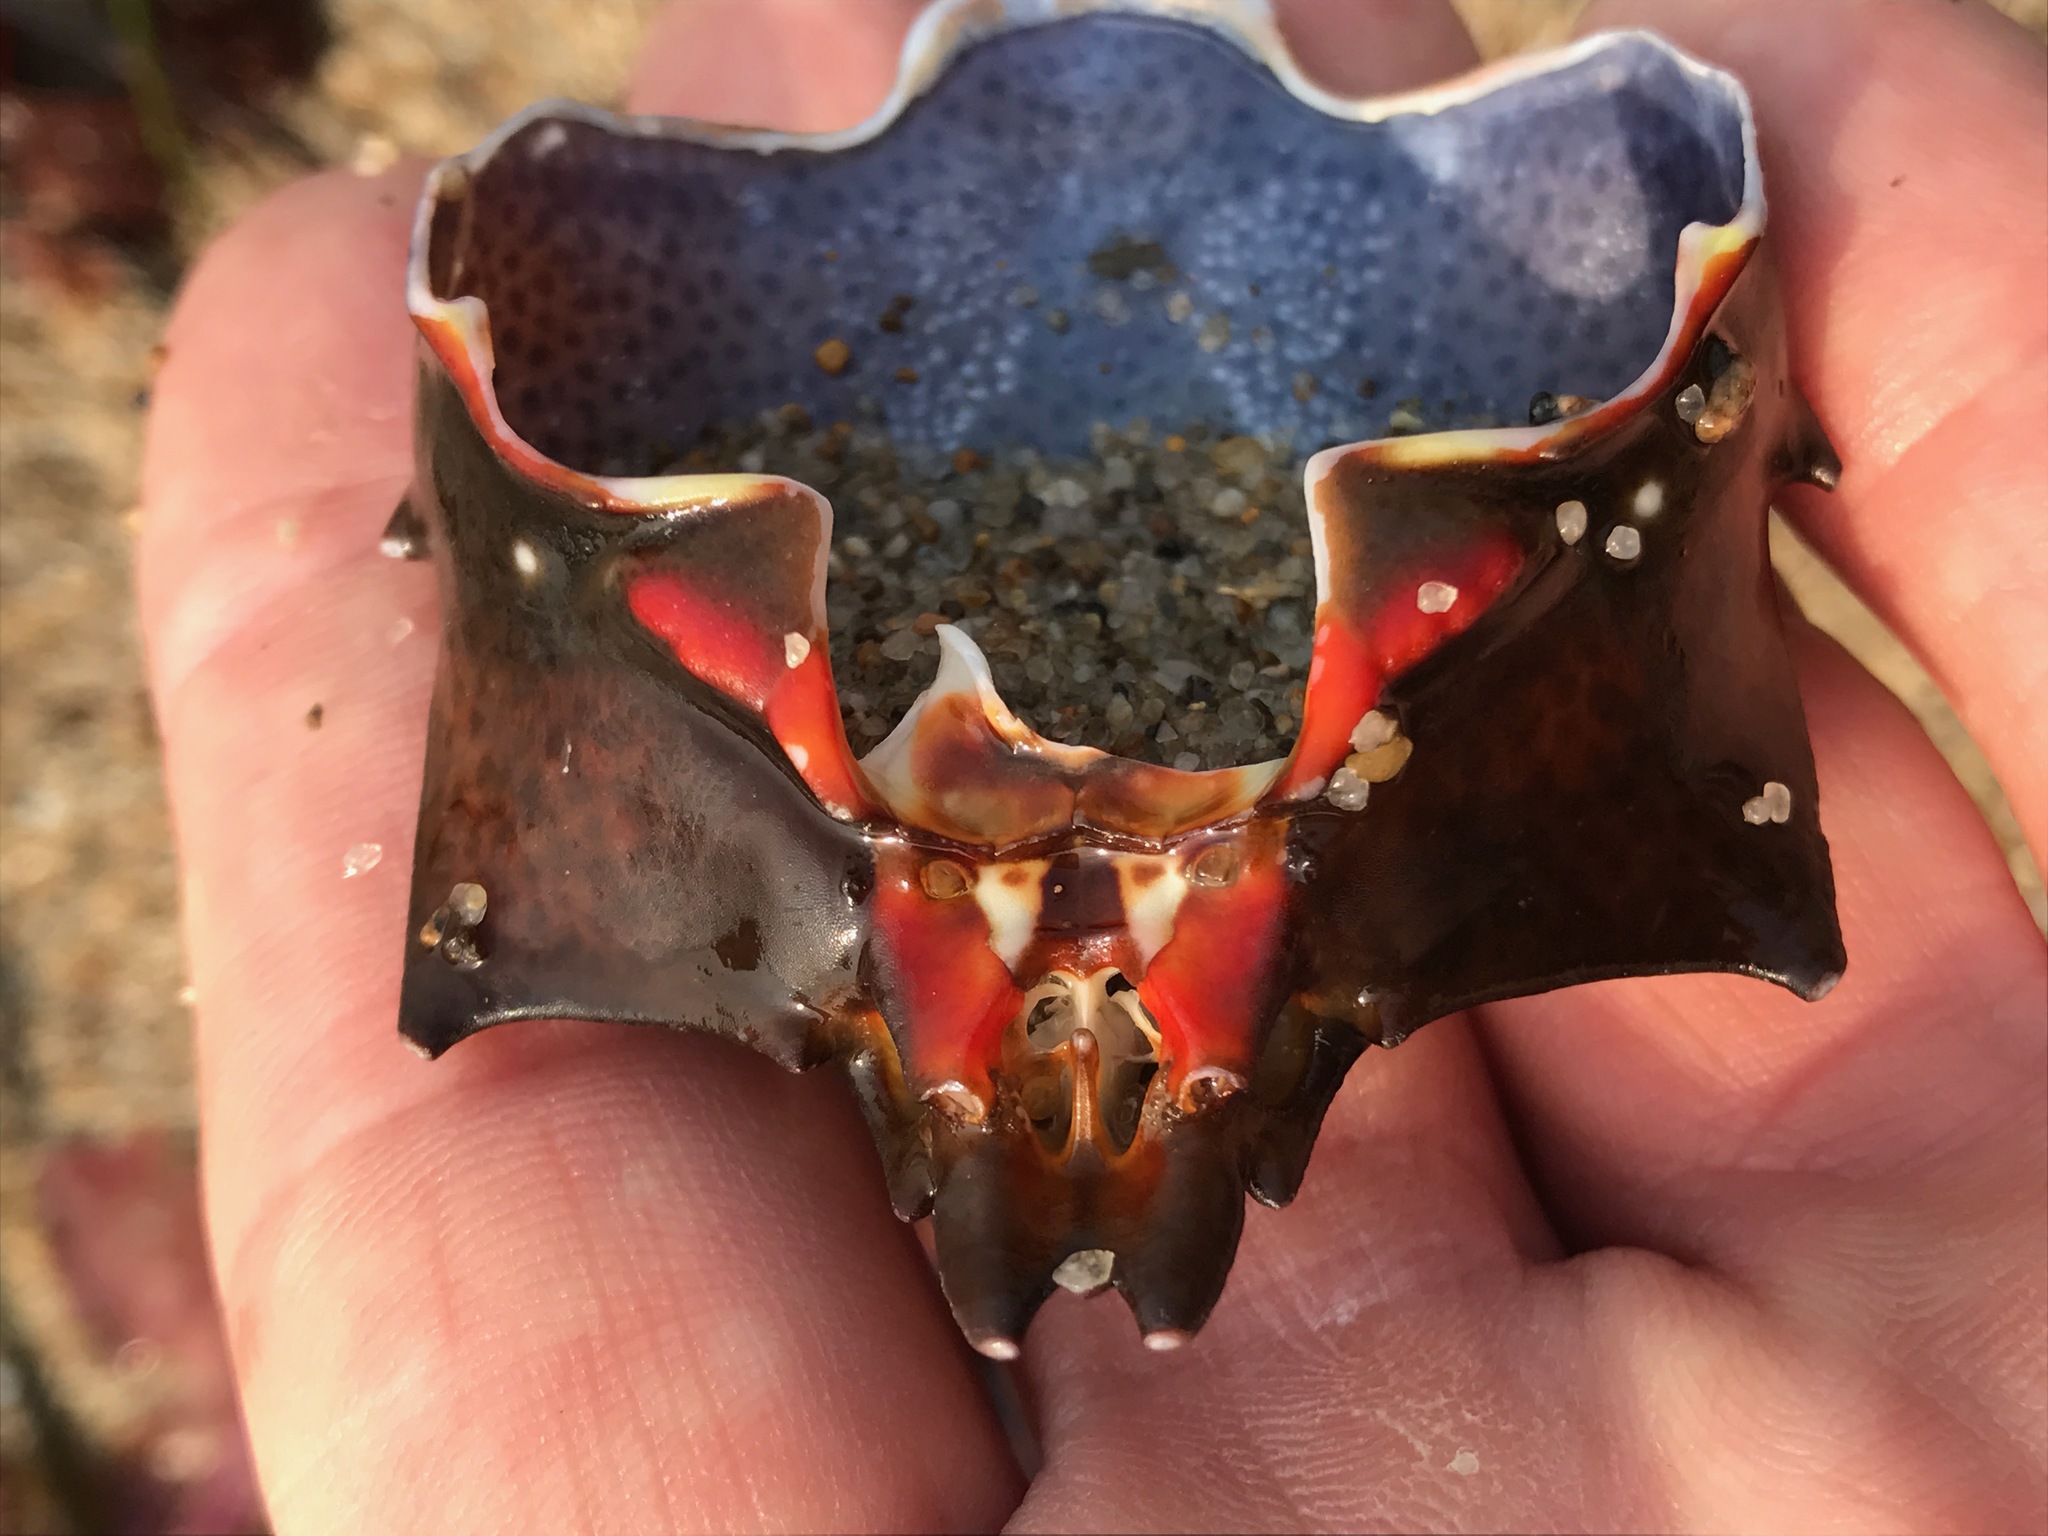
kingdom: Animalia
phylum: Arthropoda
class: Malacostraca
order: Decapoda
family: Epialtidae
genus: Pugettia
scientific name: Pugettia producta
